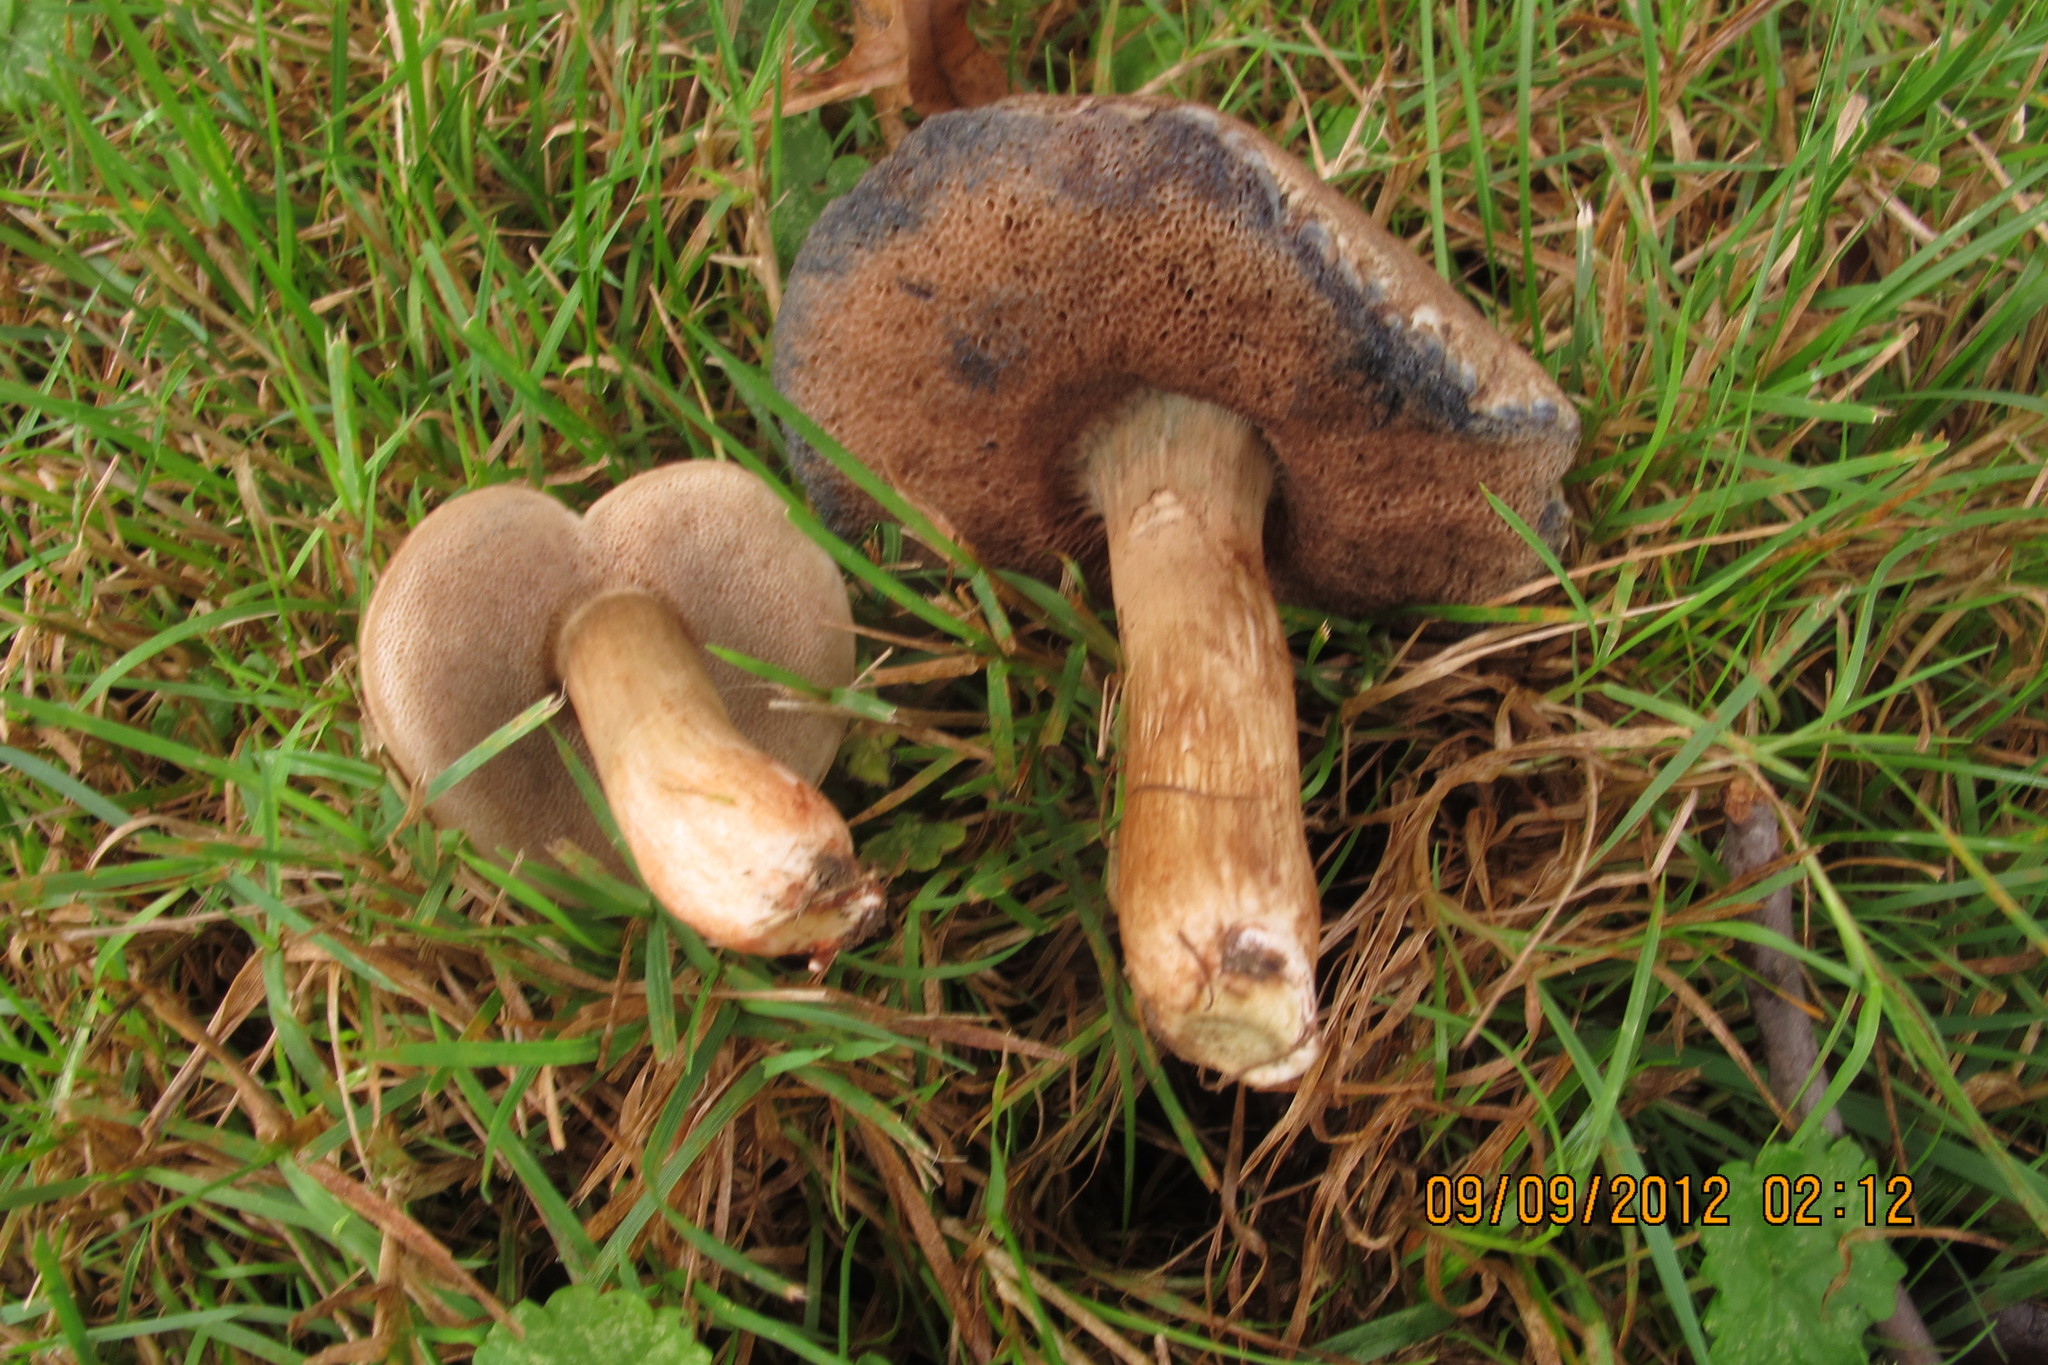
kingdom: Fungi
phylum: Basidiomycota
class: Agaricomycetes
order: Boletales
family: Boletaceae
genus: Porphyrellus
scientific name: Porphyrellus sordidus
